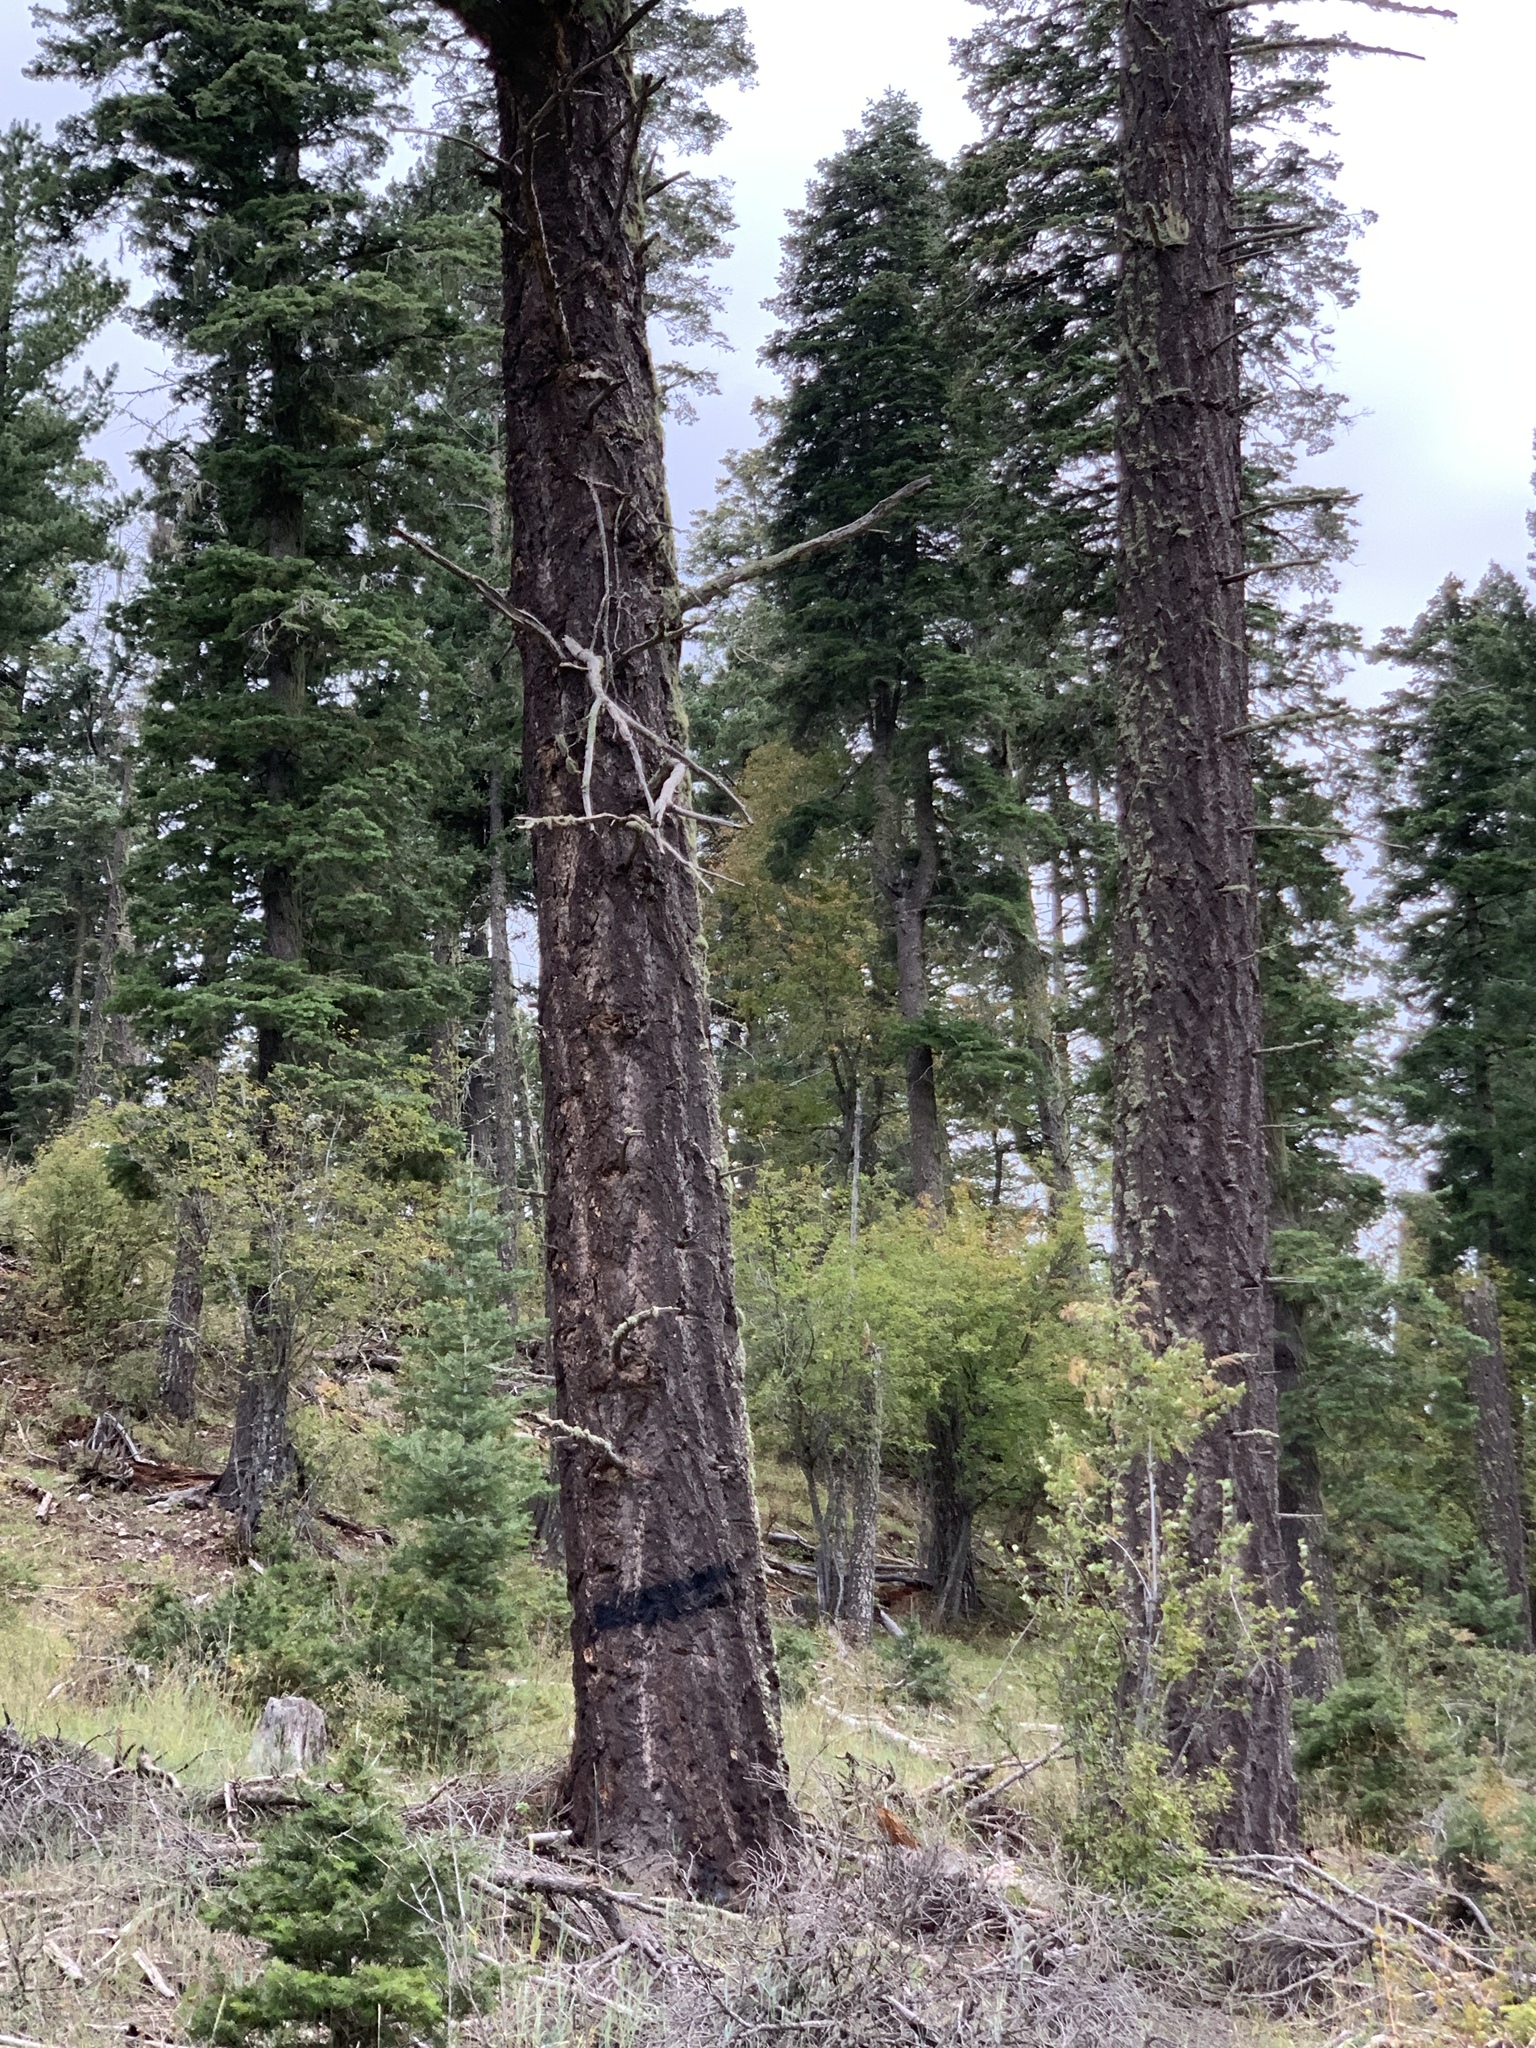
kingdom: Plantae
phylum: Tracheophyta
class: Pinopsida
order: Pinales
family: Pinaceae
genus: Pseudotsuga
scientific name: Pseudotsuga menziesii
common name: Douglas fir
